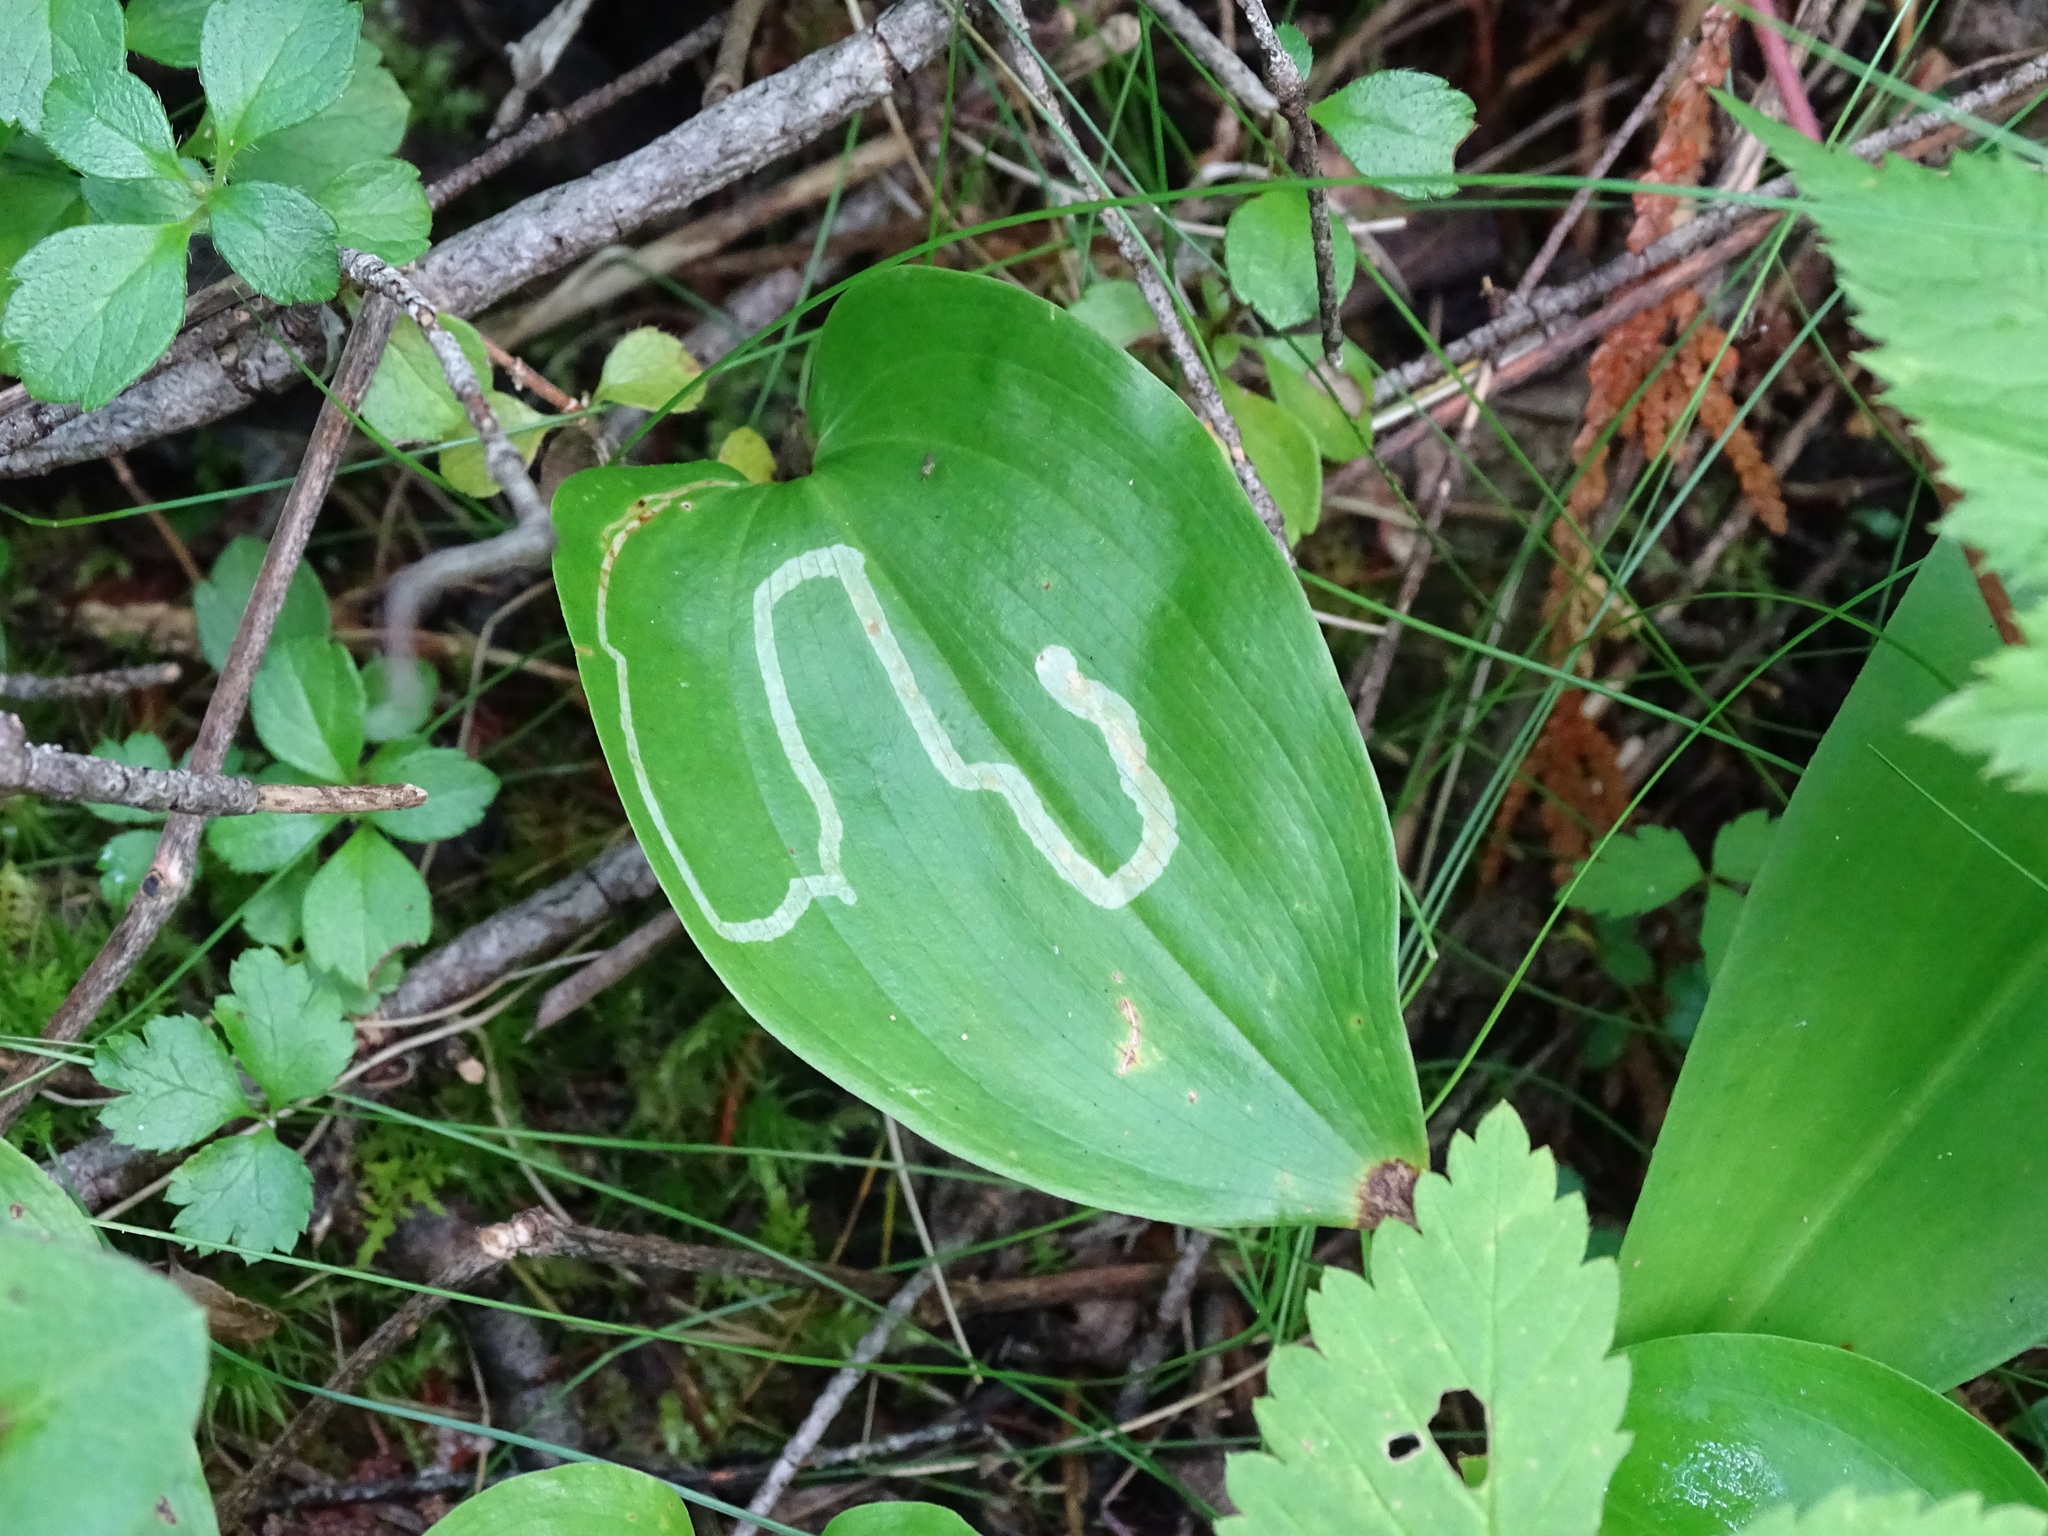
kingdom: Animalia
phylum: Arthropoda
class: Insecta
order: Diptera
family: Agromyzidae
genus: Liriomyza
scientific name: Liriomyza smilacinae
